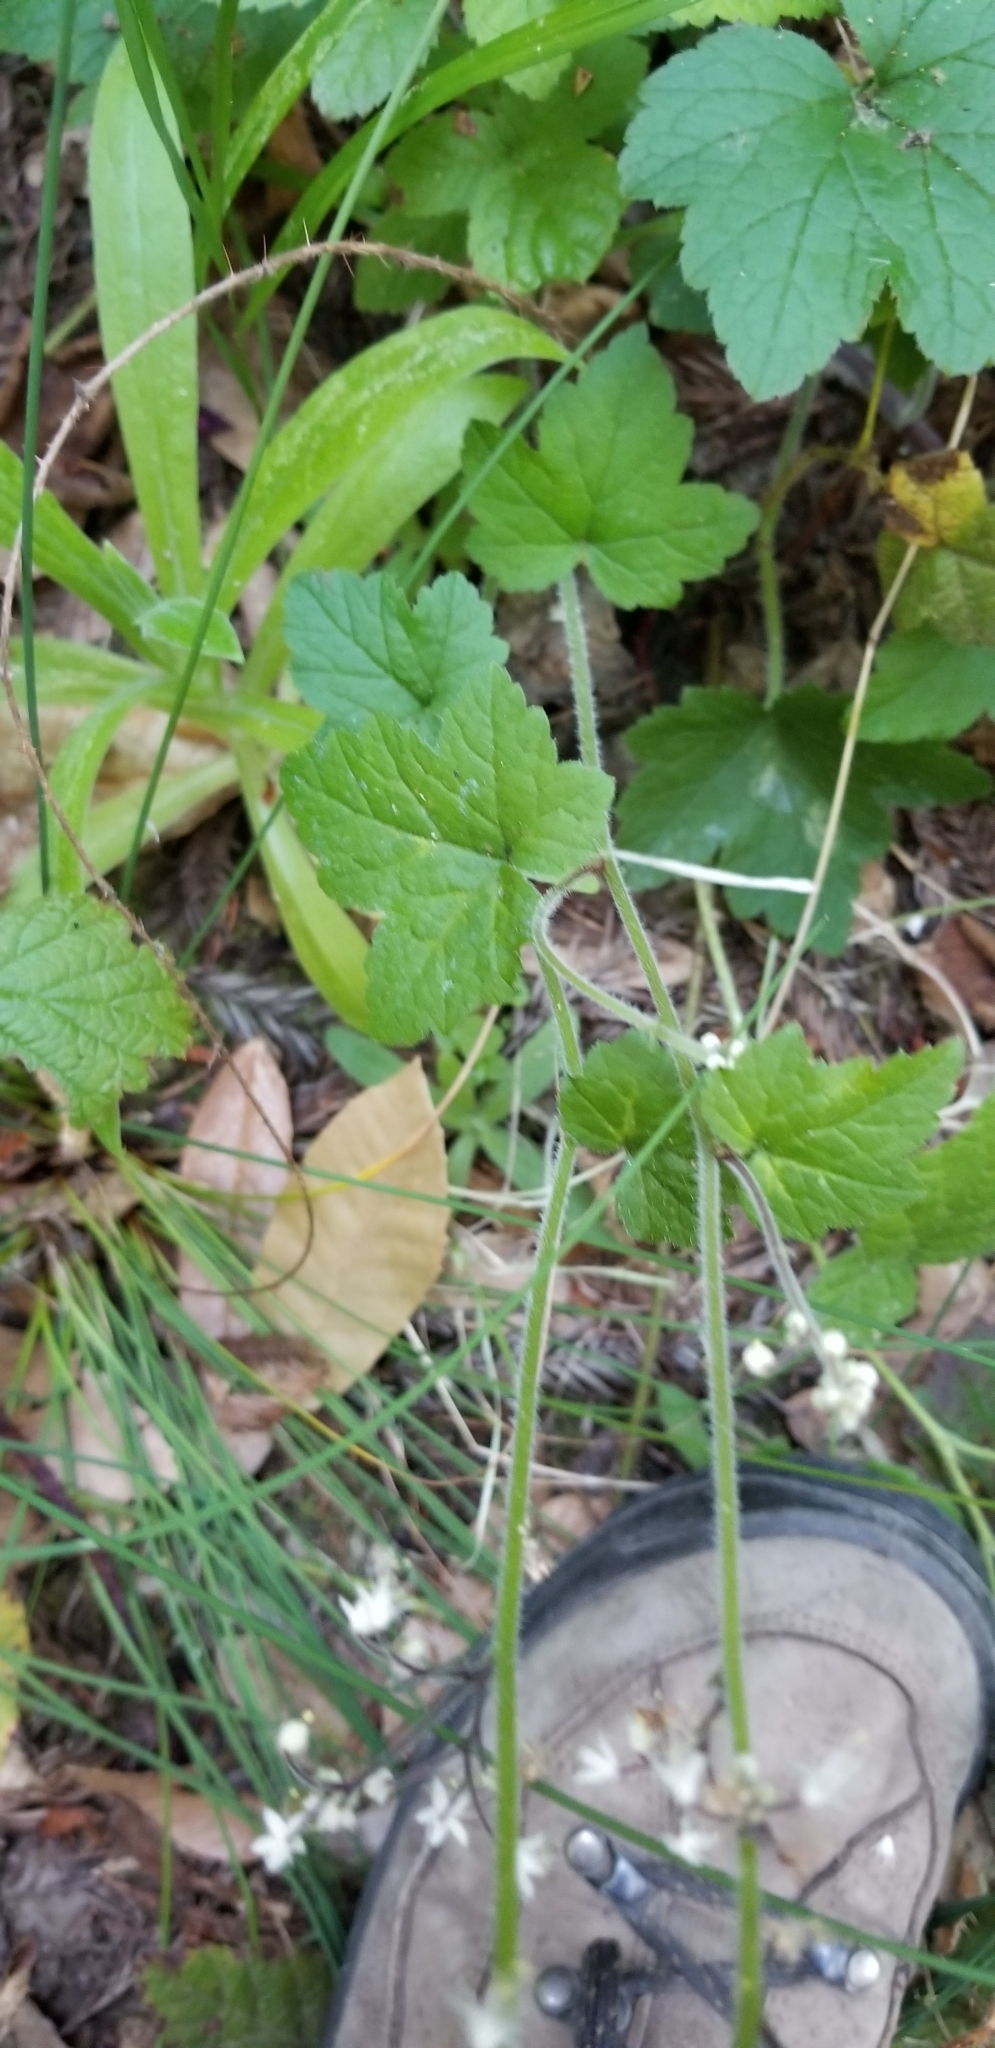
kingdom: Plantae
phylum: Tracheophyta
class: Magnoliopsida
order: Saxifragales
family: Saxifragaceae
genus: Tiarella
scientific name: Tiarella trifoliata
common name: Sugar-scoop
